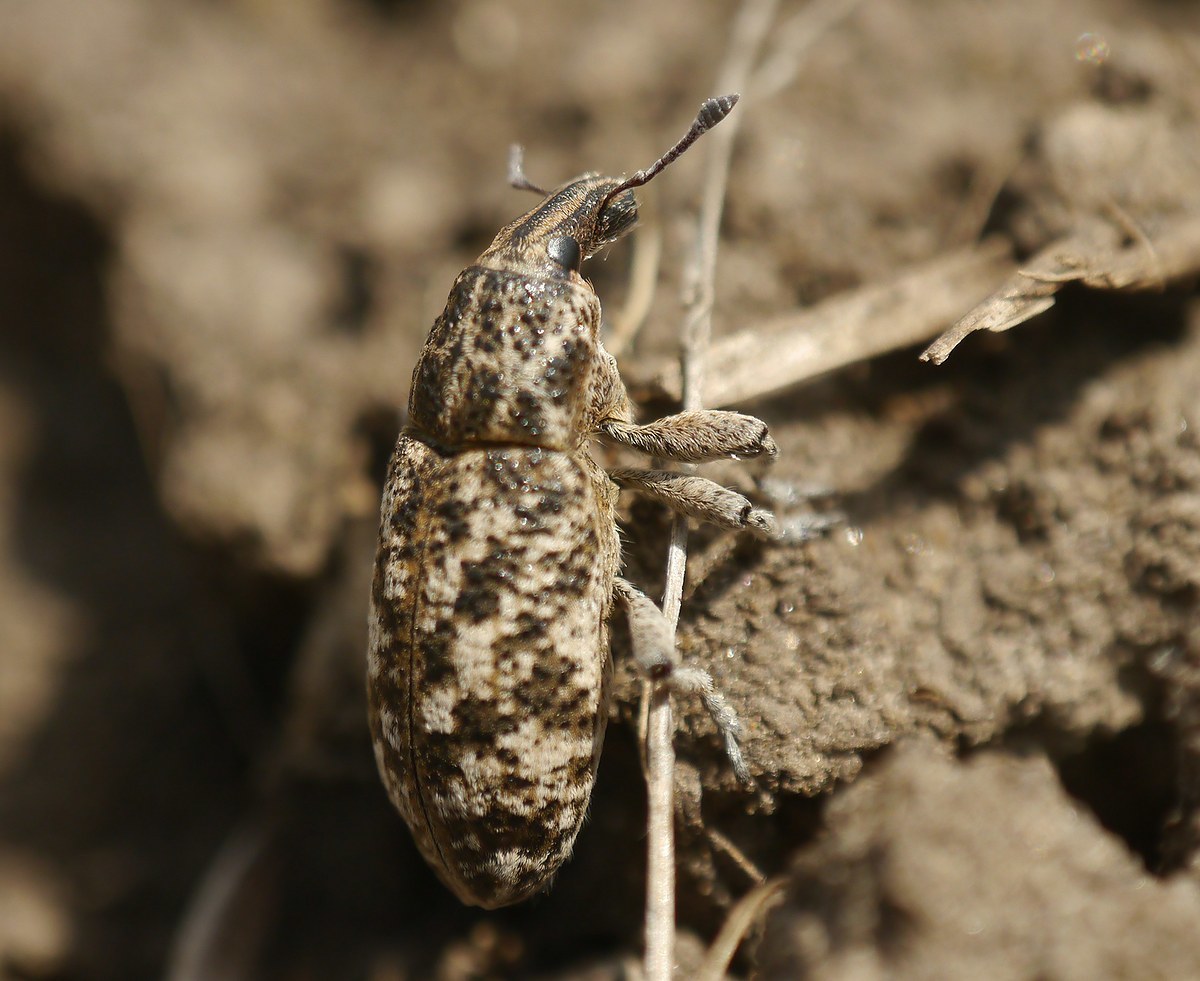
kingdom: Animalia
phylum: Arthropoda
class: Insecta
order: Coleoptera
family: Curculionidae
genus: Cyphocleonus
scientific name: Cyphocleonus dealbatus
